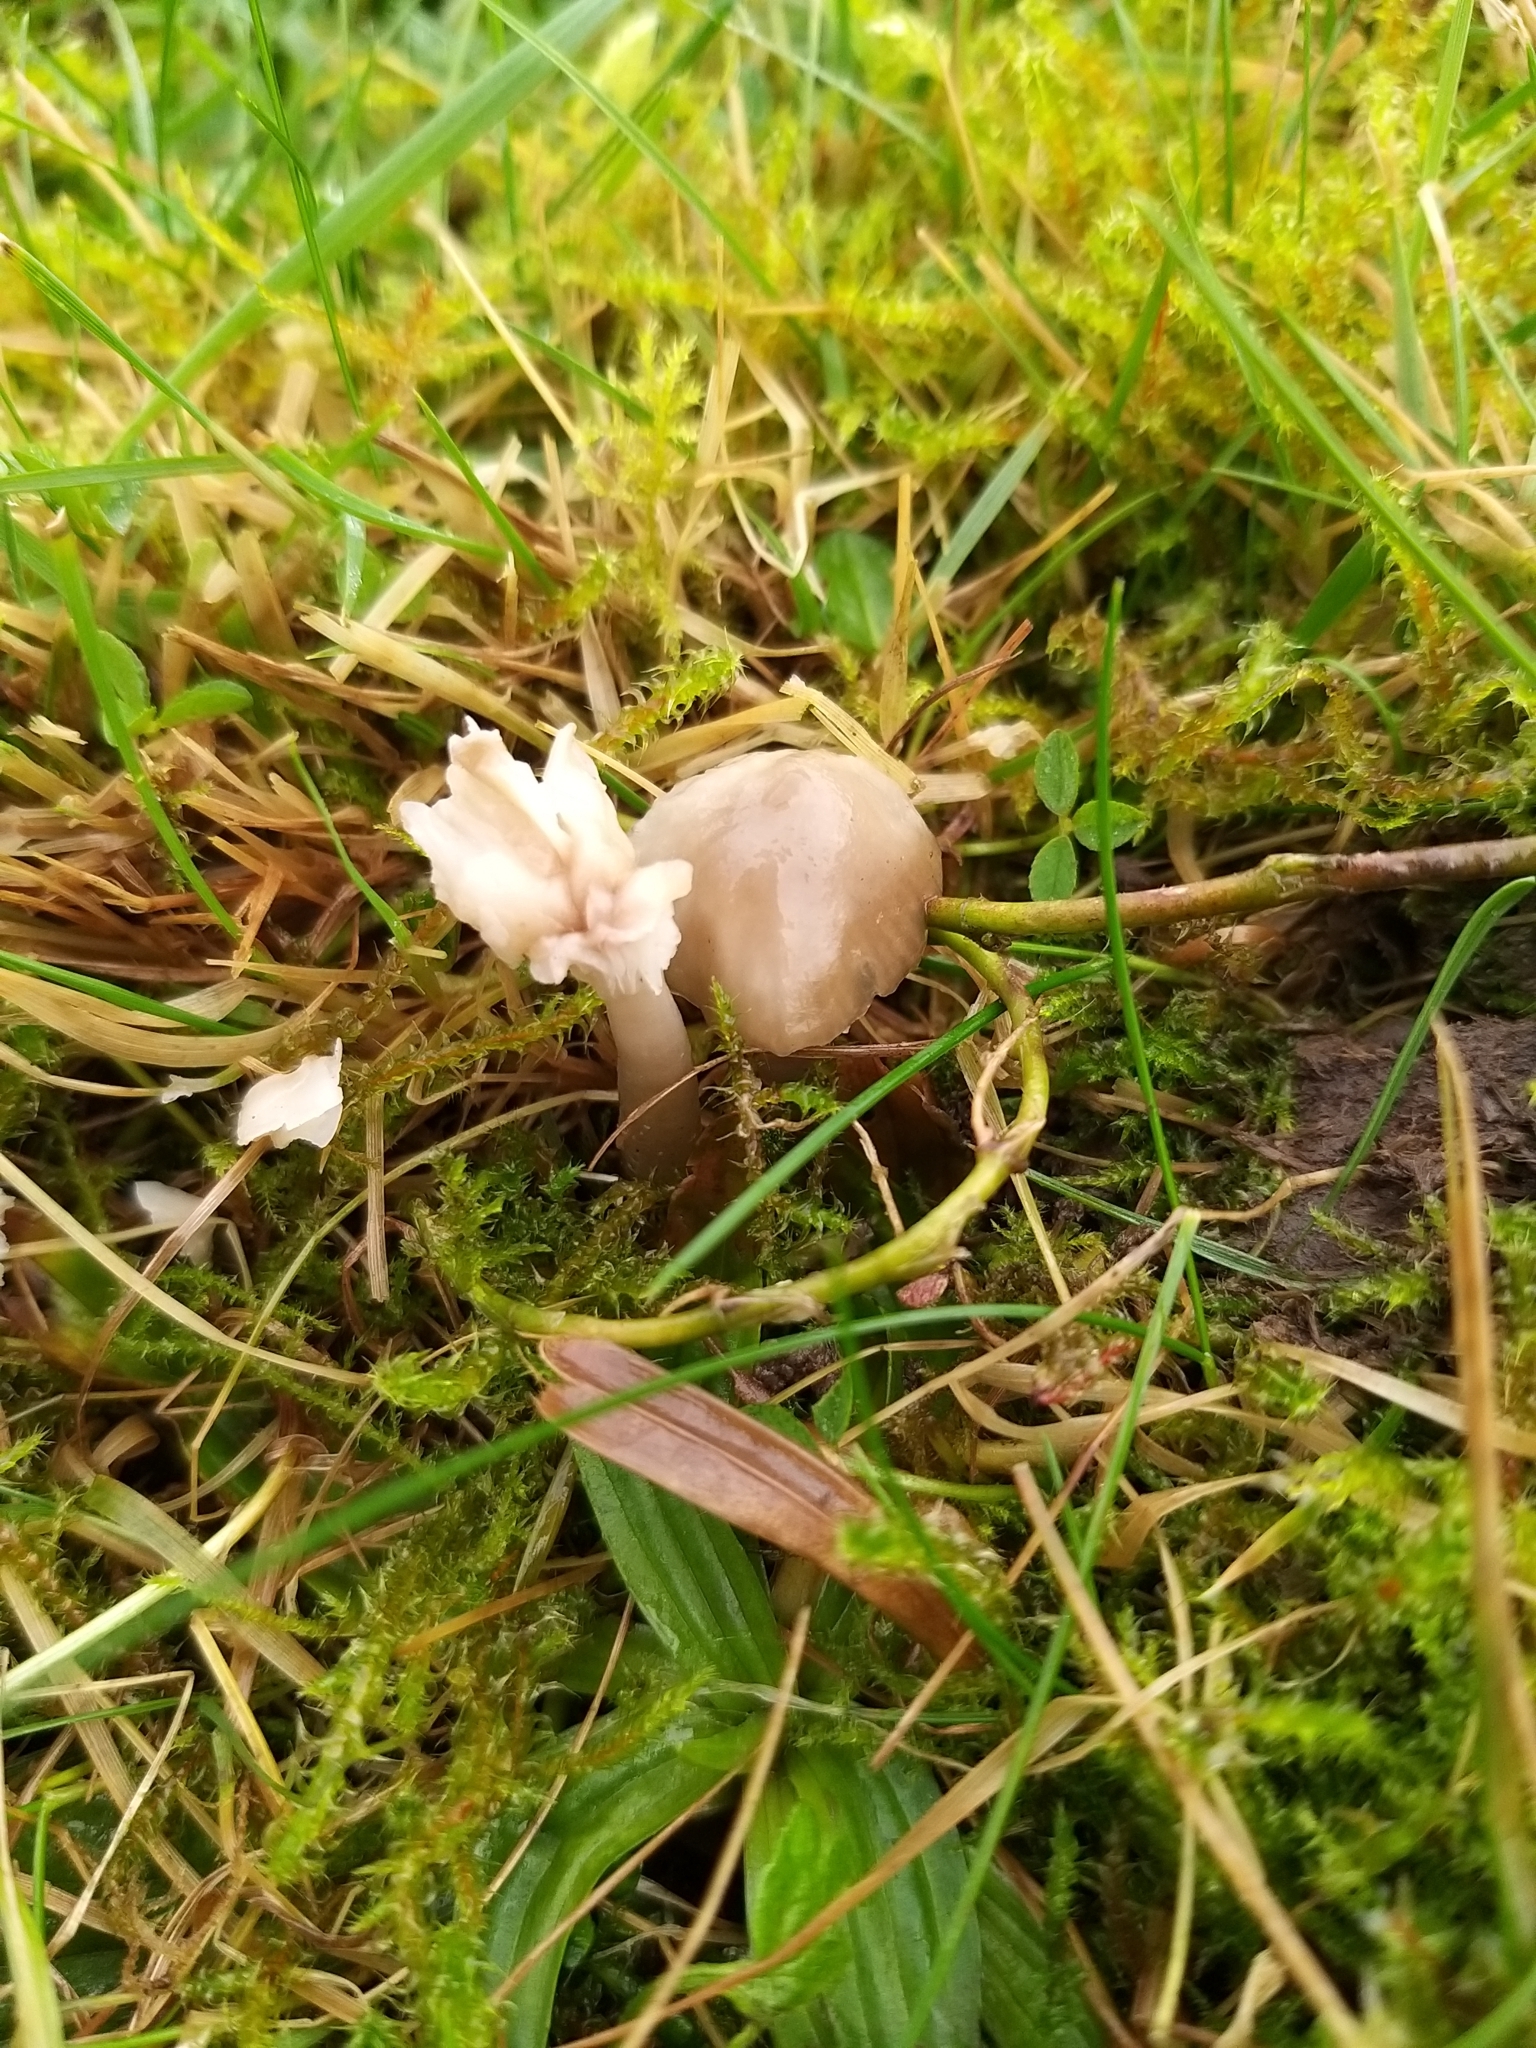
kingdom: Fungi
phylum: Basidiomycota
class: Agaricomycetes
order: Agaricales
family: Hygrophoraceae
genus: Gliophorus
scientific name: Gliophorus irrigatus
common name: Slimy waxcap
